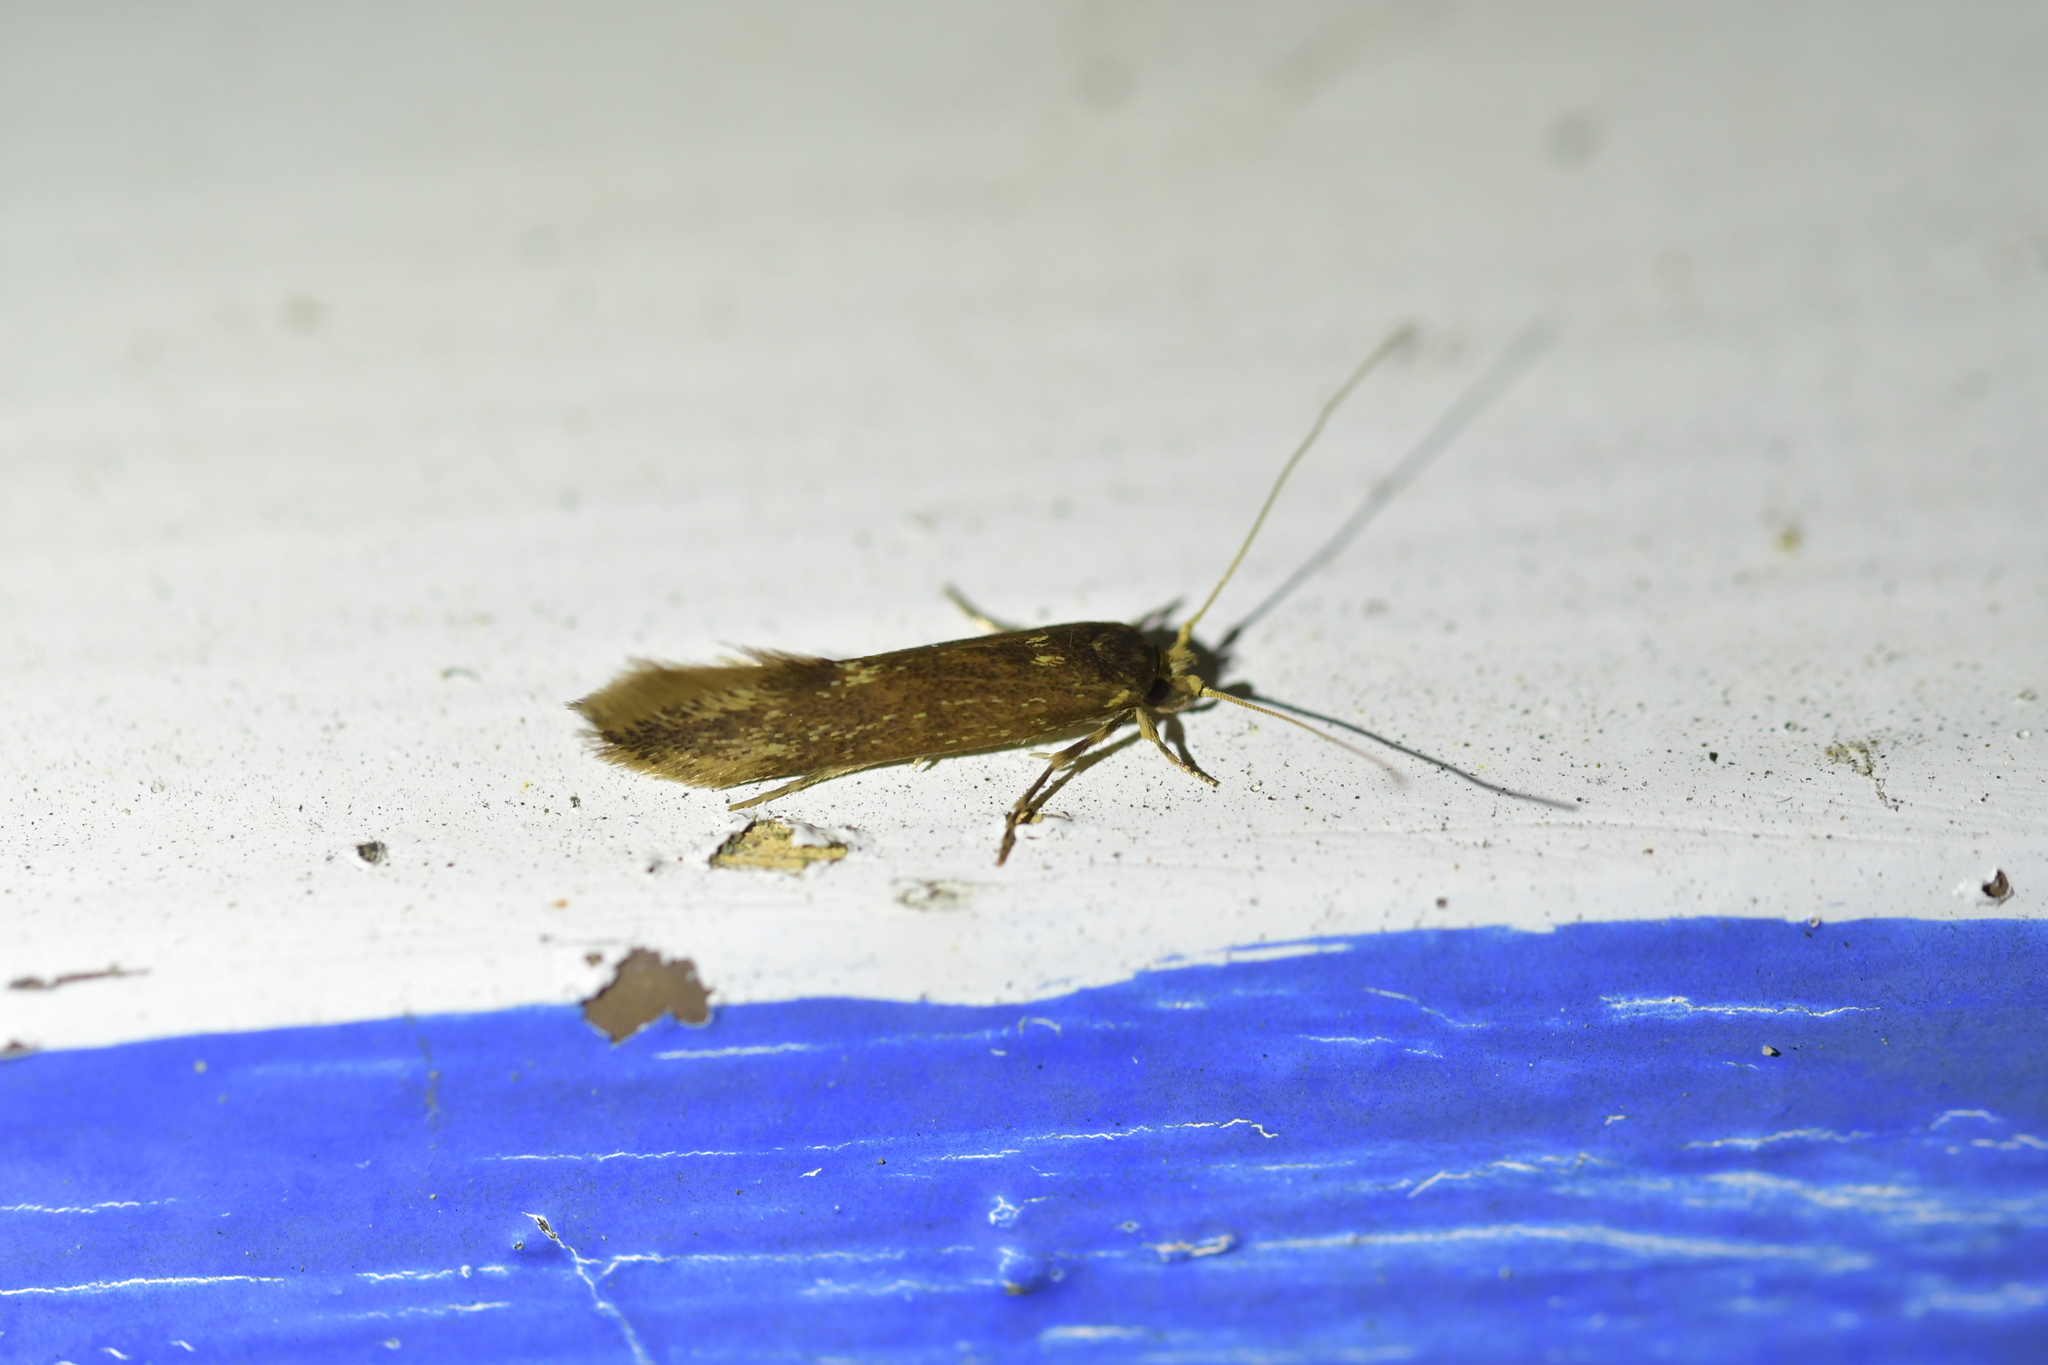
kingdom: Animalia
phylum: Arthropoda
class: Insecta
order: Lepidoptera
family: Tineidae
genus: Opogona
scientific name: Opogona omoscopa
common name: Moth
